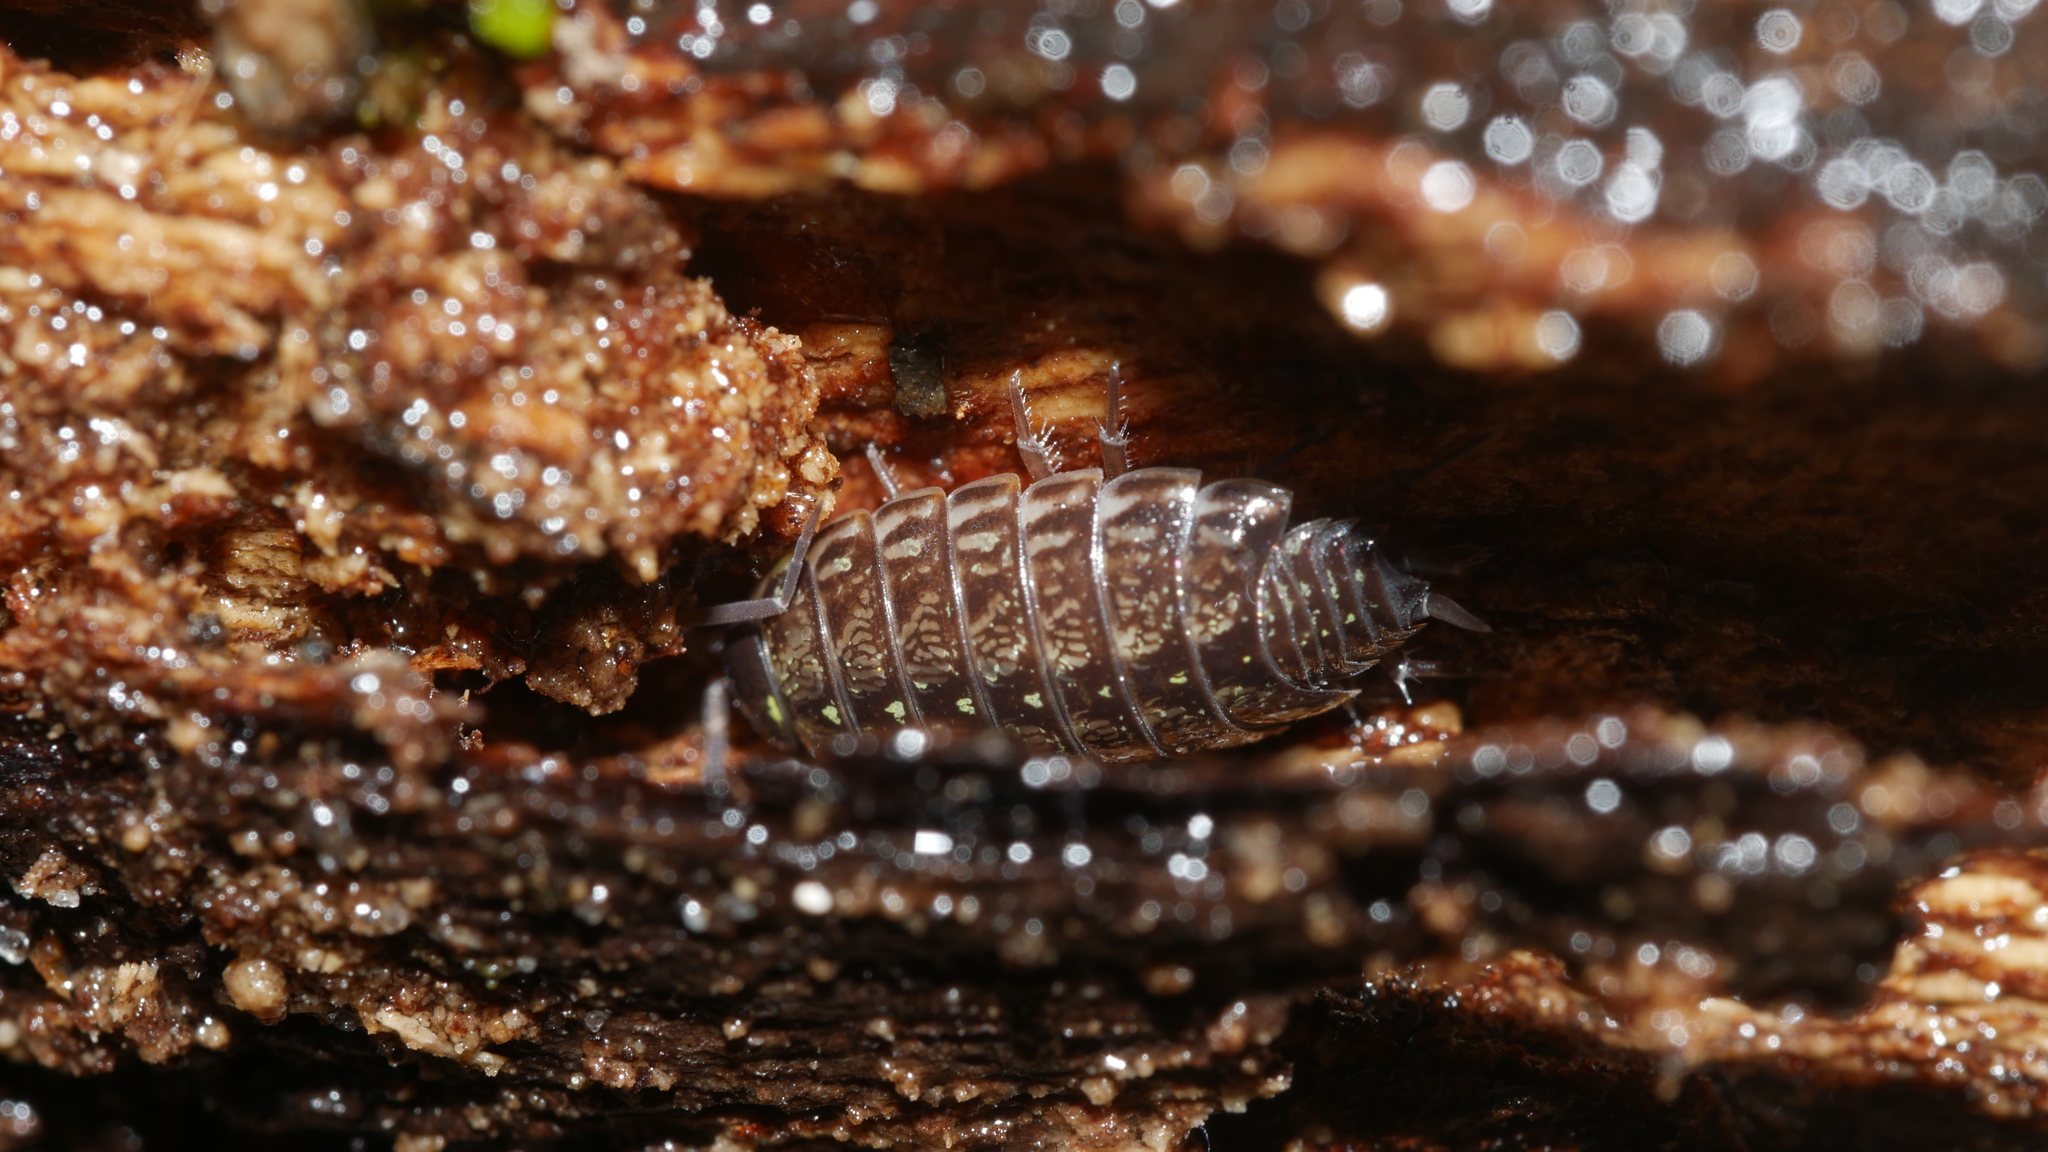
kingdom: Animalia
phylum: Arthropoda
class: Malacostraca
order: Isopoda
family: Philosciidae
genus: Philoscia
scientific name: Philoscia muscorum
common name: Common striped woodlouse
